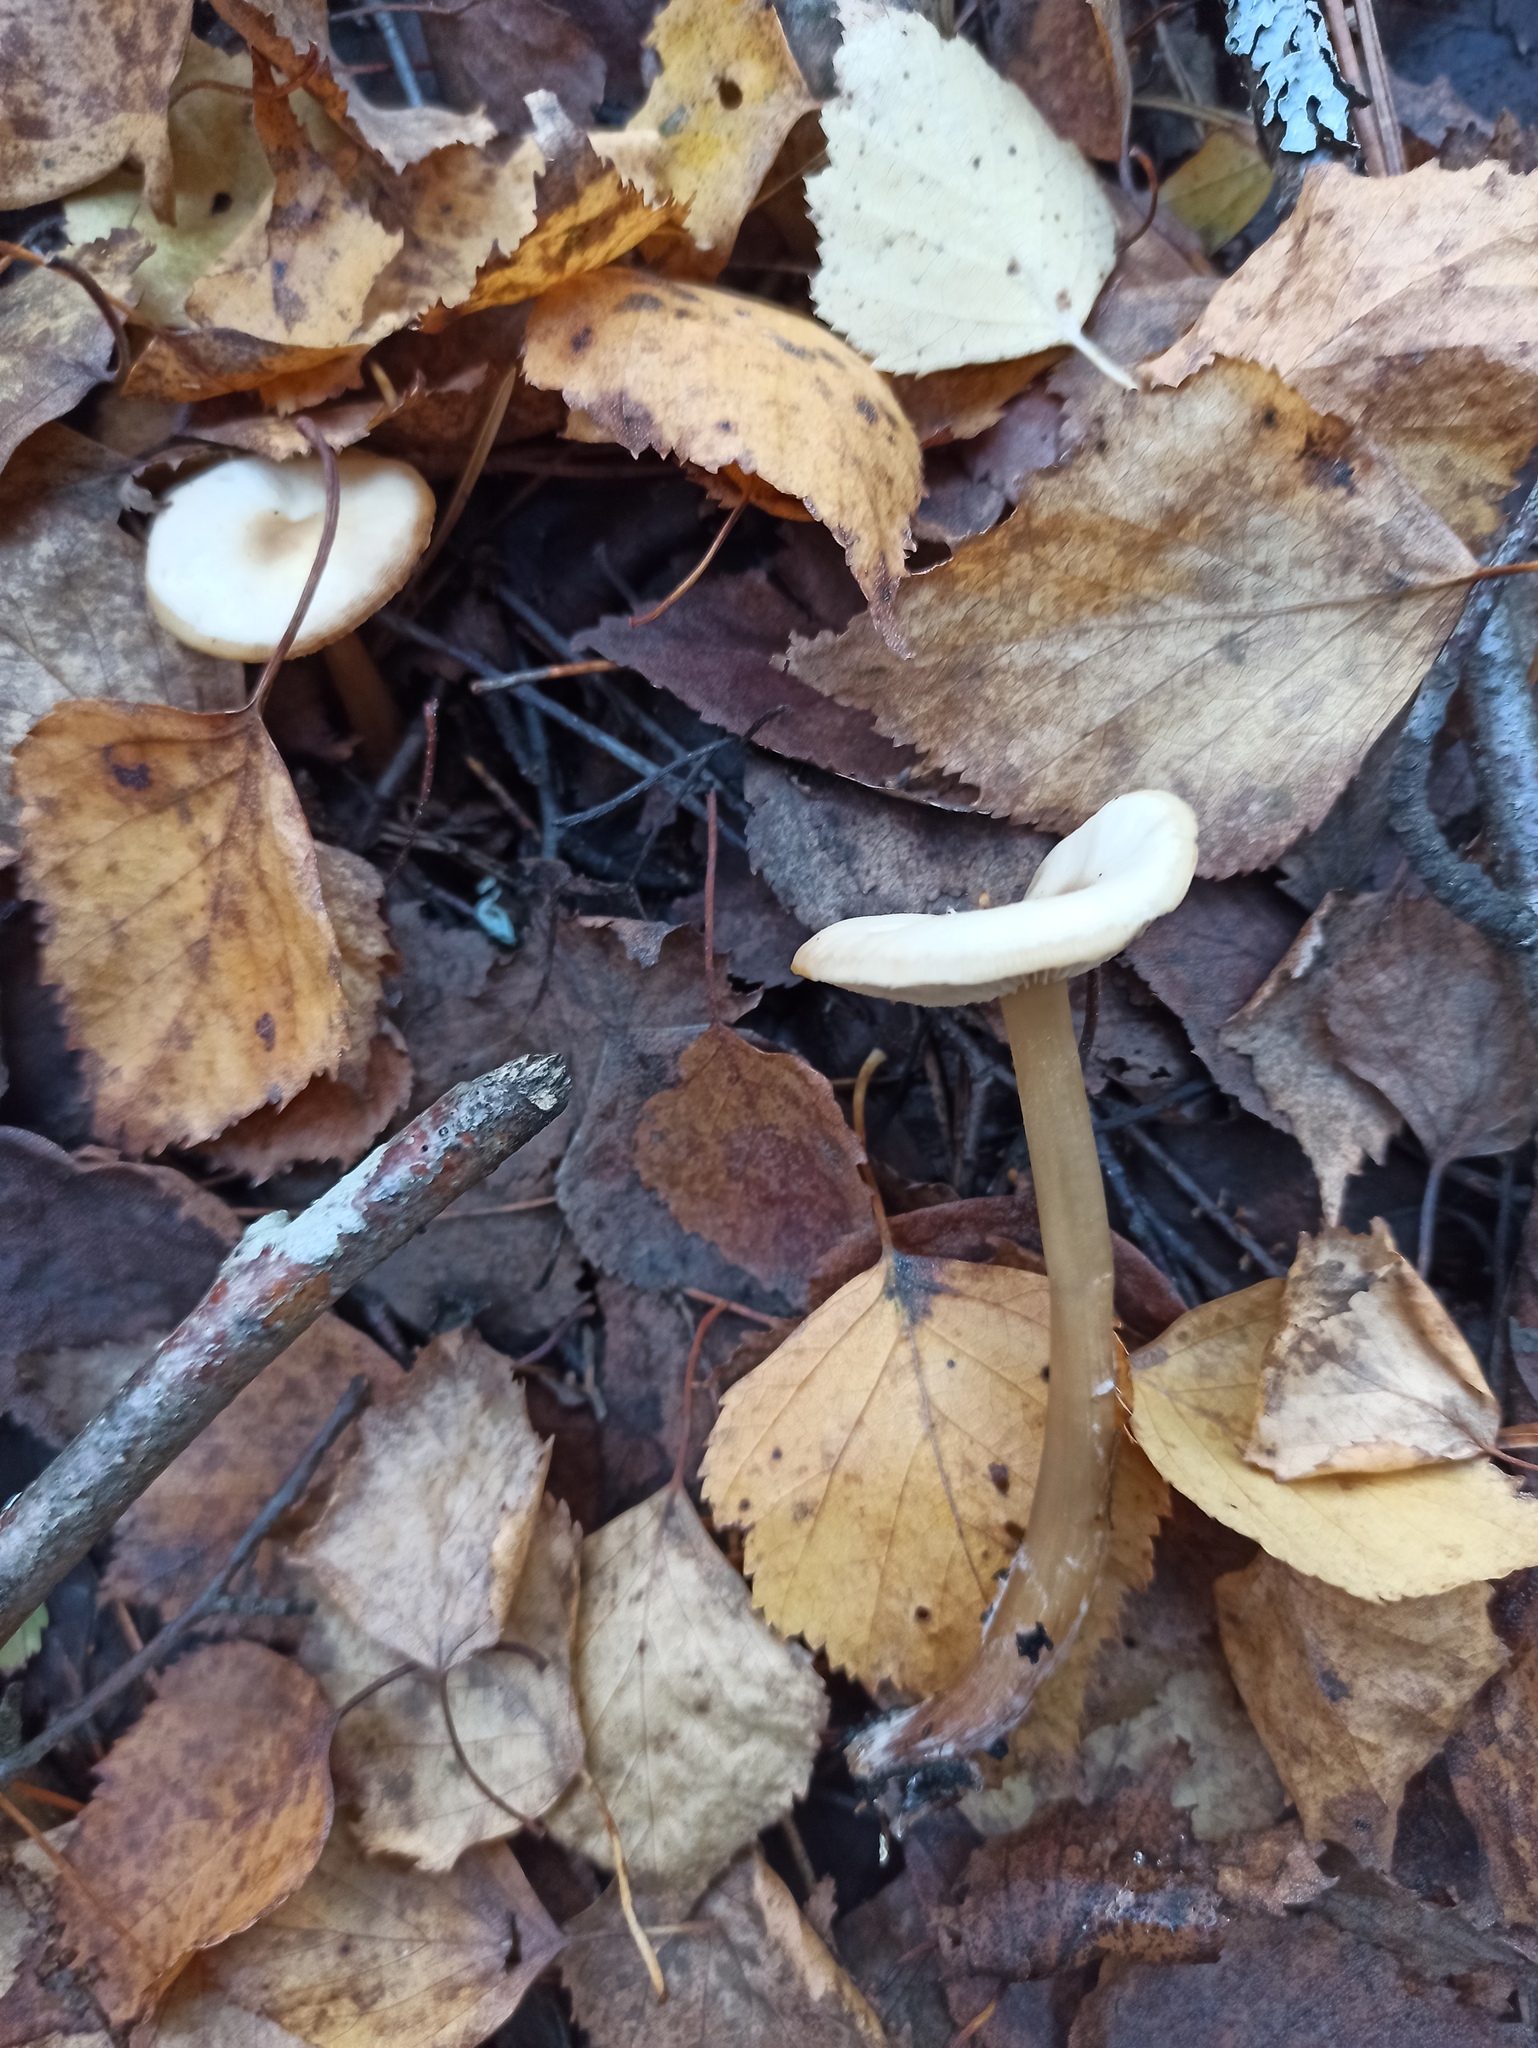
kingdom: Fungi
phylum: Basidiomycota
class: Agaricomycetes
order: Agaricales
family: Omphalotaceae
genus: Rhodocollybia
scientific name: Rhodocollybia asema
